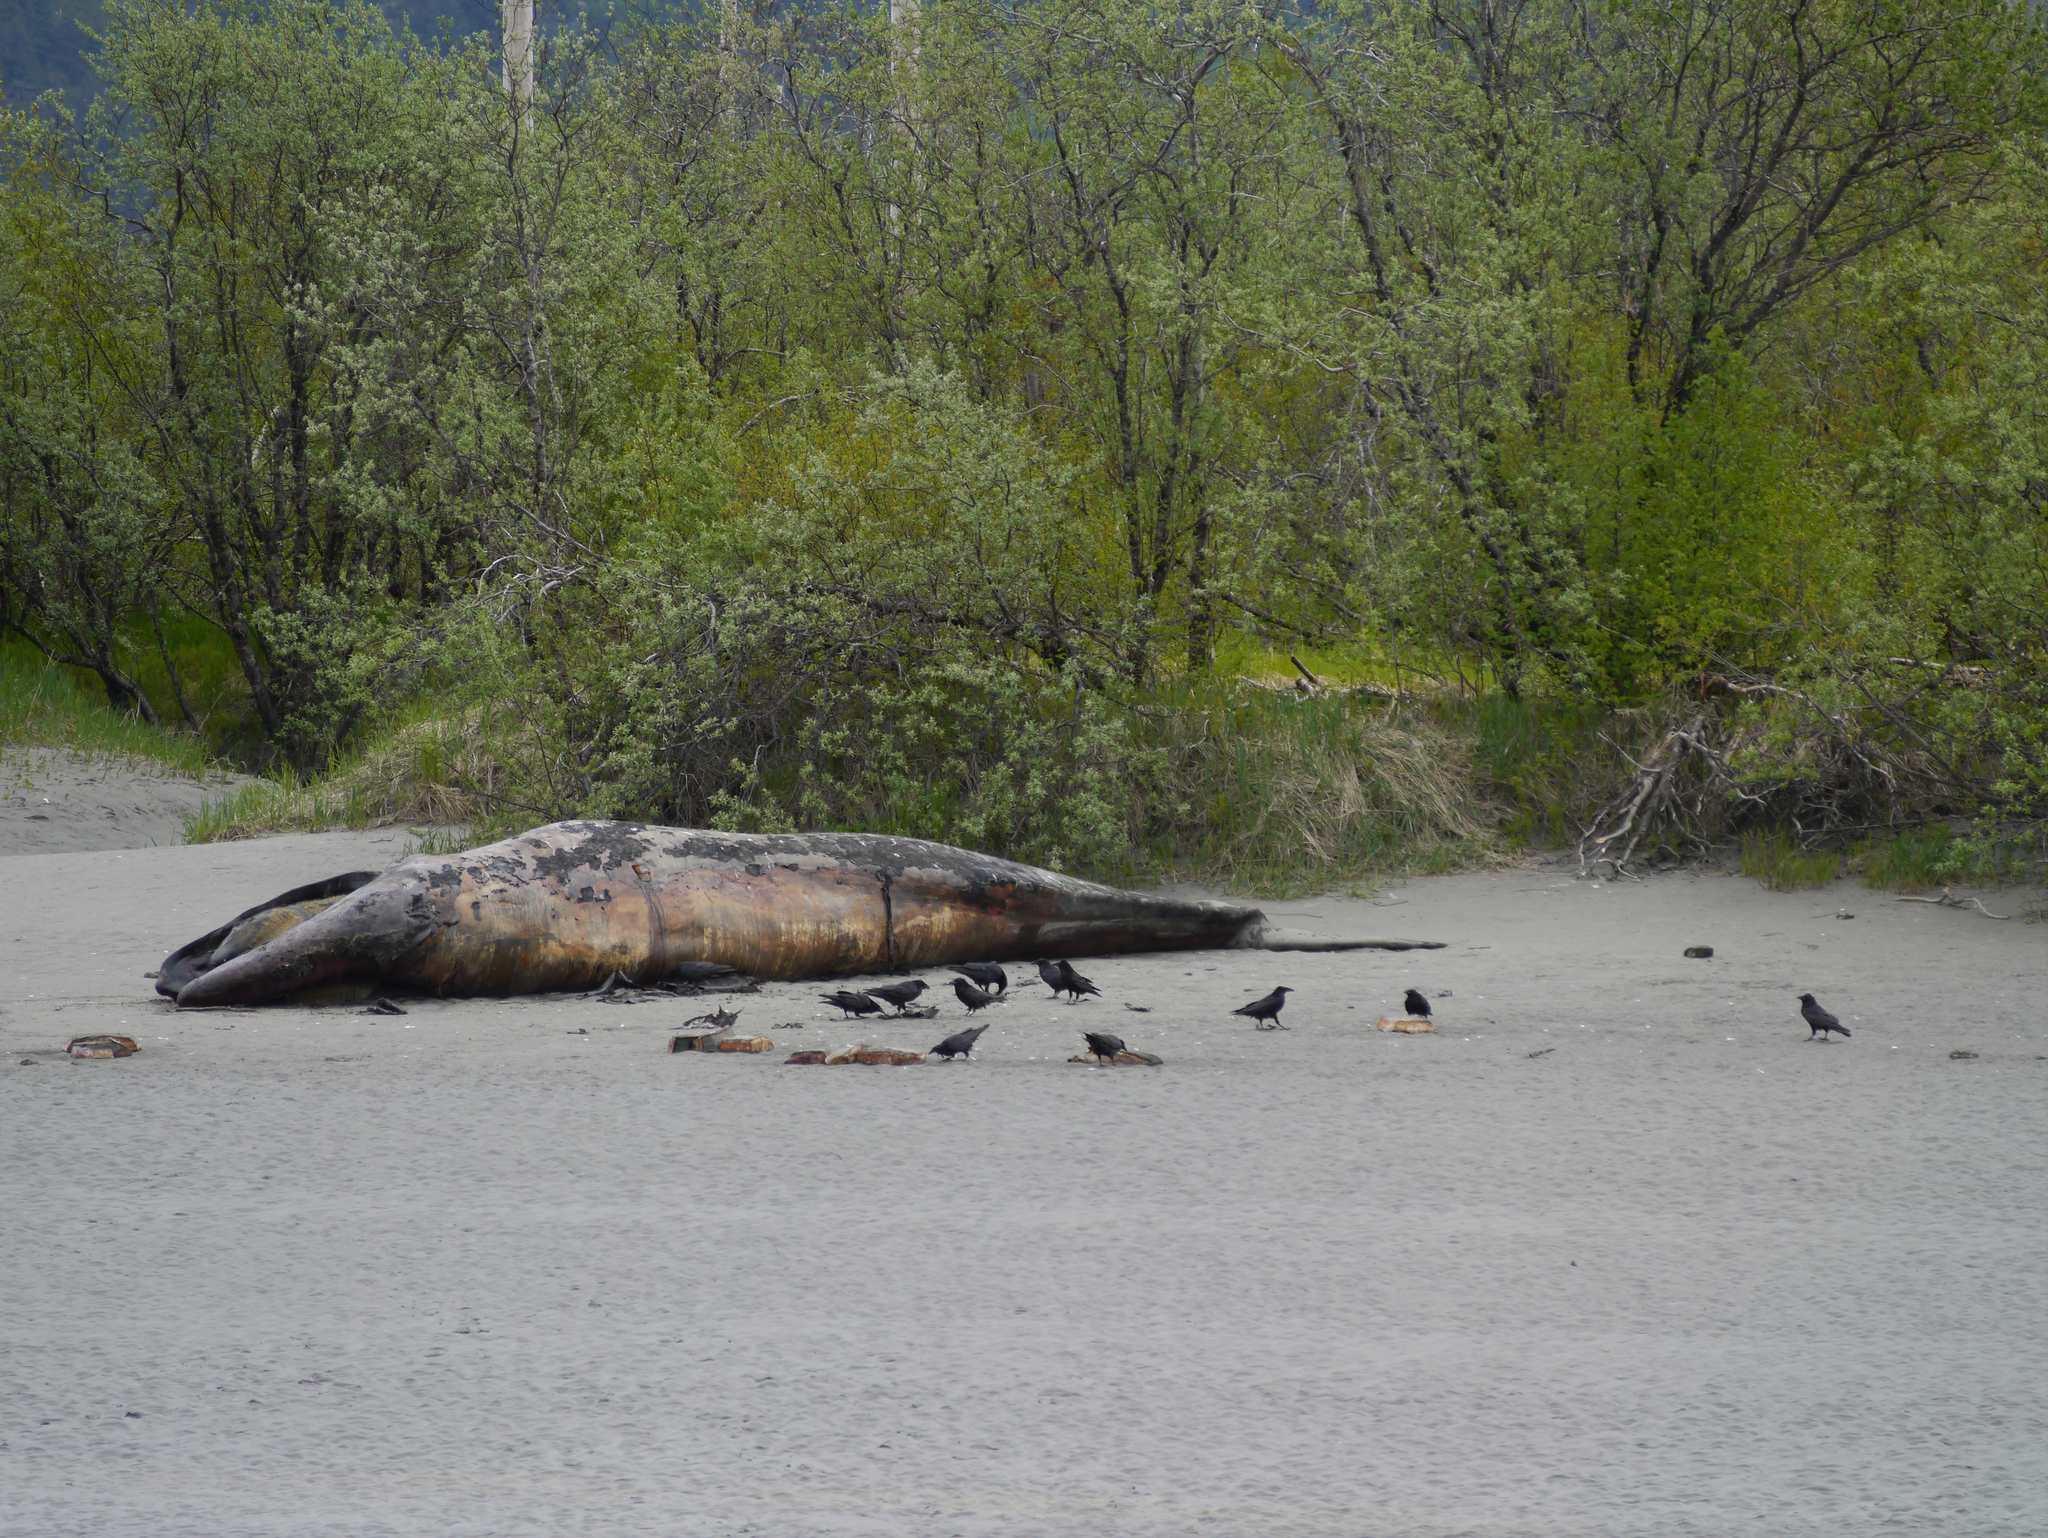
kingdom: Animalia
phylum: Chordata
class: Mammalia
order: Cetacea
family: Eschrichtiidae
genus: Eschrichtius
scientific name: Eschrichtius robustus
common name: Gray whale
